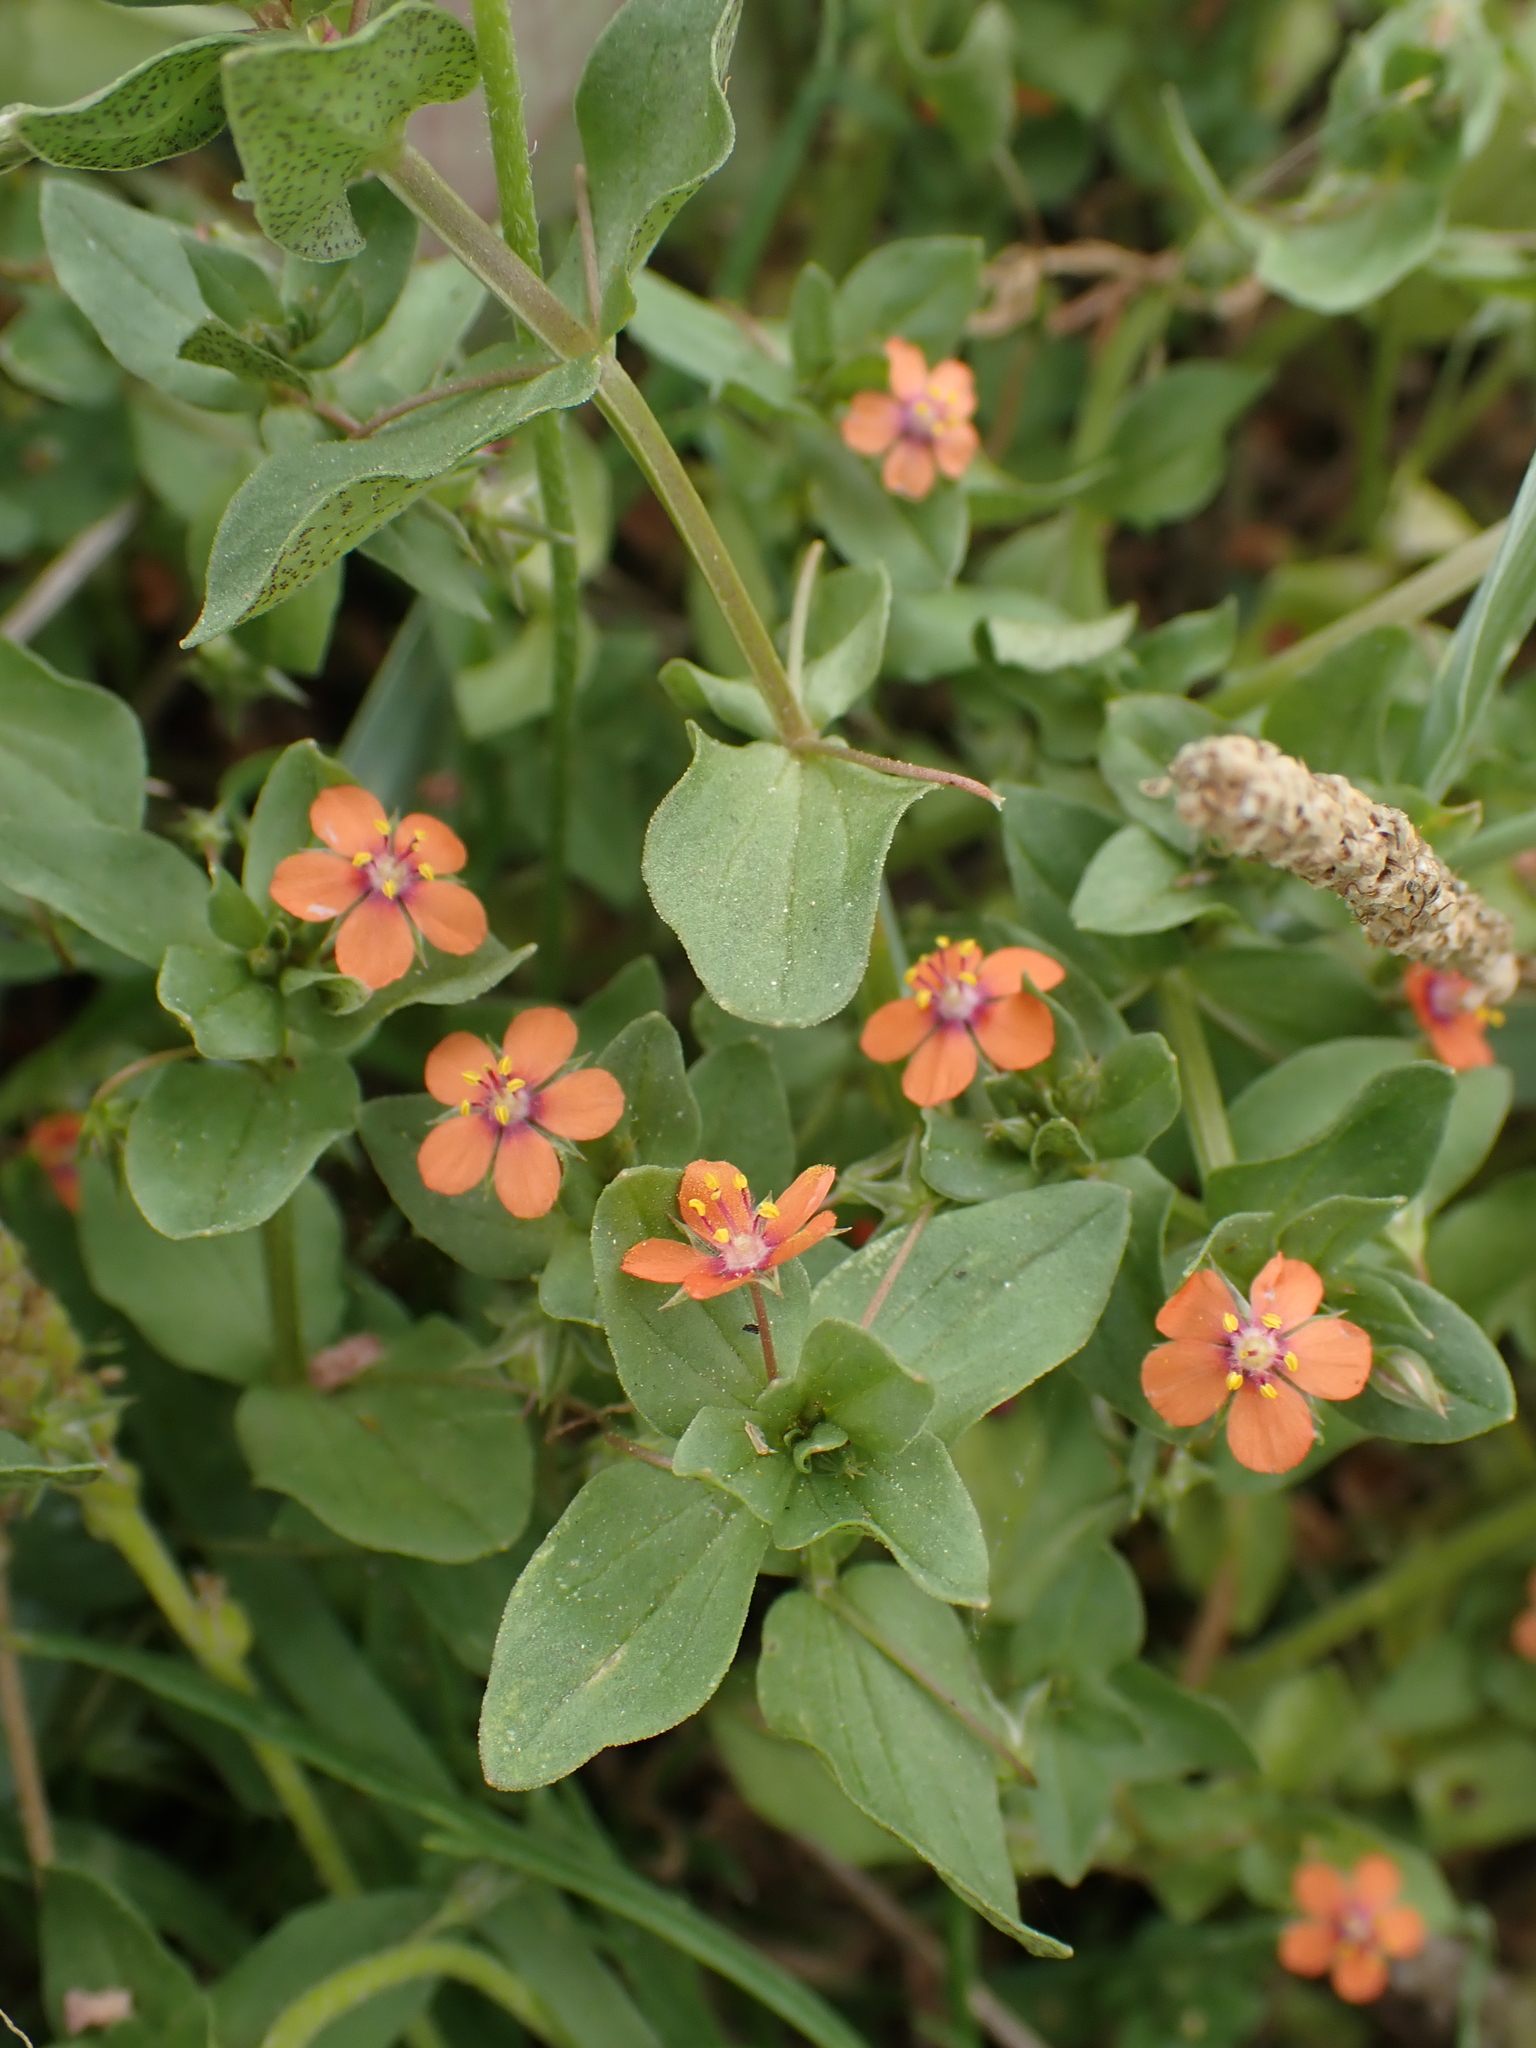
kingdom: Plantae
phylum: Tracheophyta
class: Magnoliopsida
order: Ericales
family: Primulaceae
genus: Lysimachia
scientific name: Lysimachia arvensis
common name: Scarlet pimpernel
